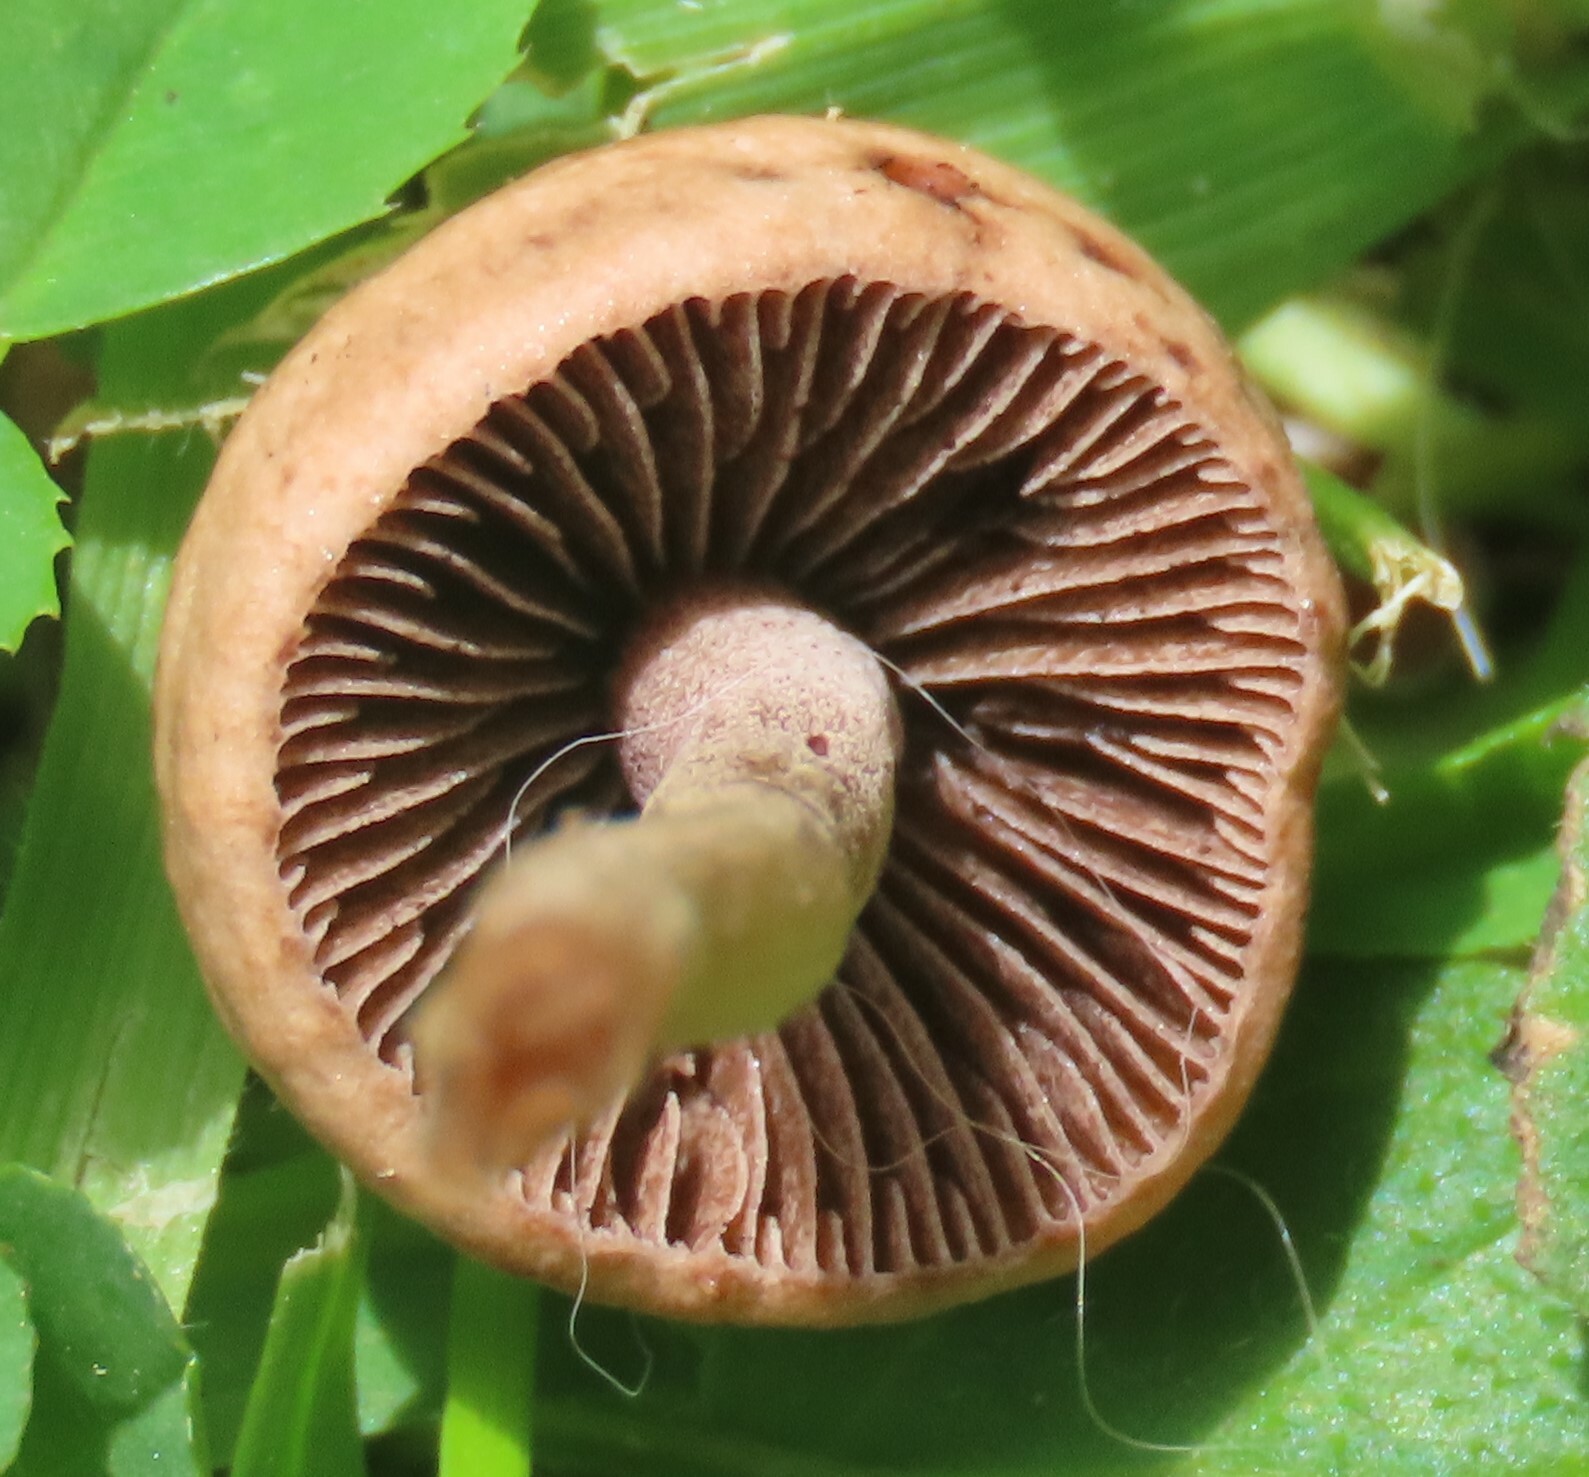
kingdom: Fungi
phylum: Basidiomycota
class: Agaricomycetes
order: Agaricales
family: Bolbitiaceae
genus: Panaeolina
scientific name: Panaeolina foenisecii
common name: Brown hay cap
